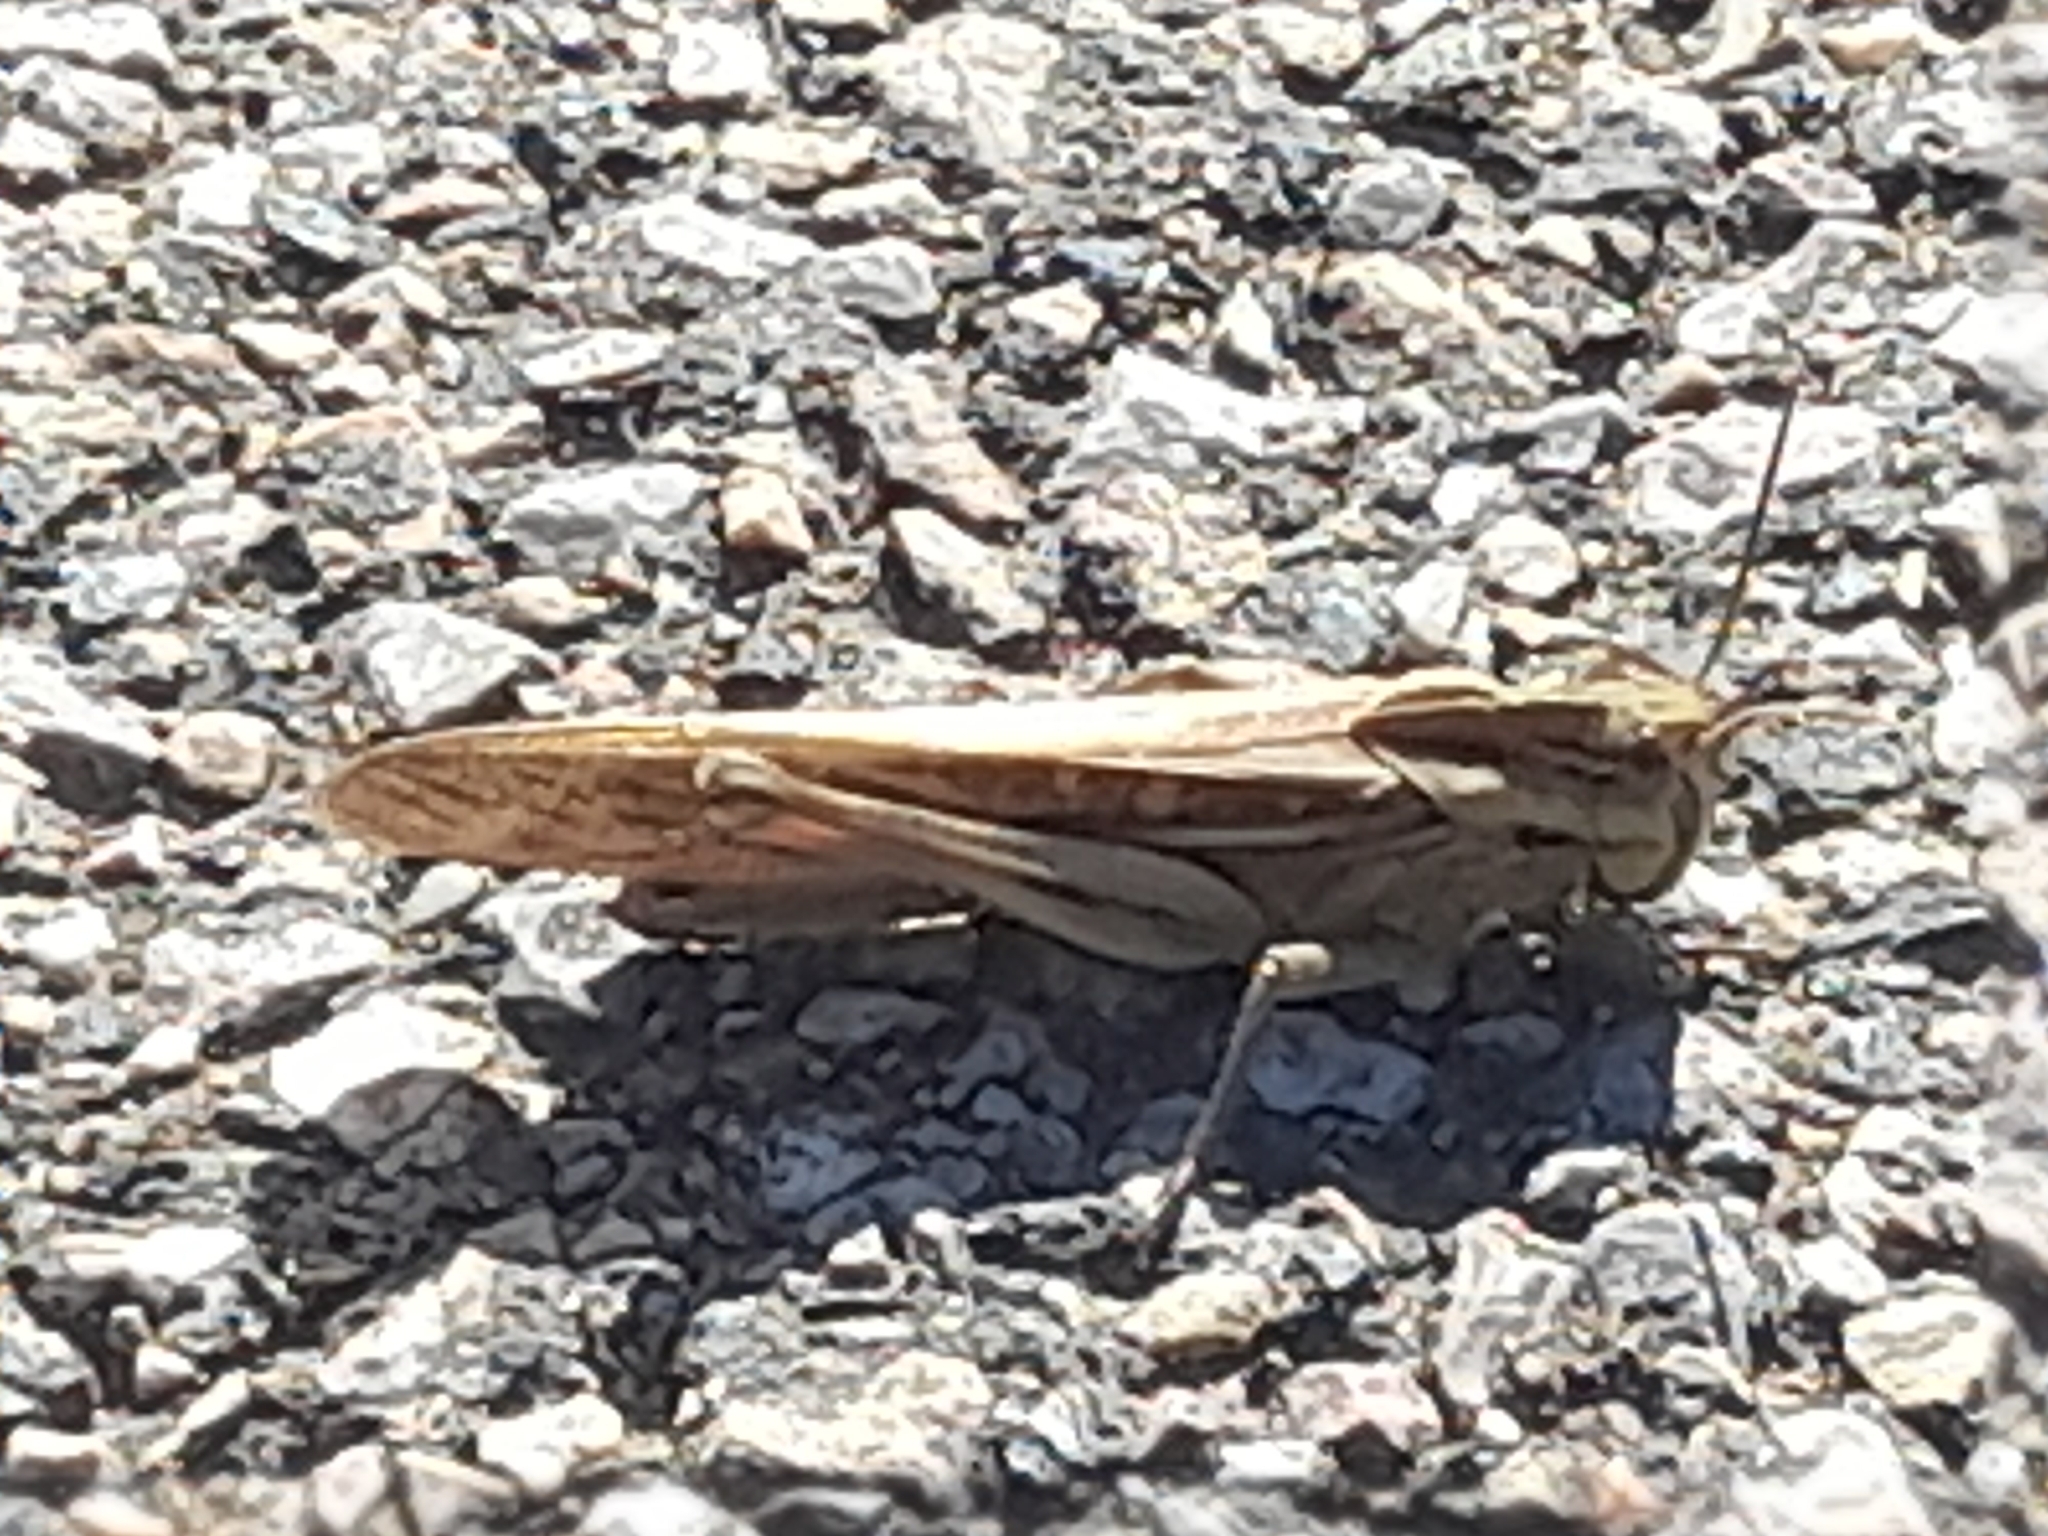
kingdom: Animalia
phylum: Arthropoda
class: Insecta
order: Orthoptera
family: Acrididae
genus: Locusta
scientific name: Locusta migratoria
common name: Migratory locust
